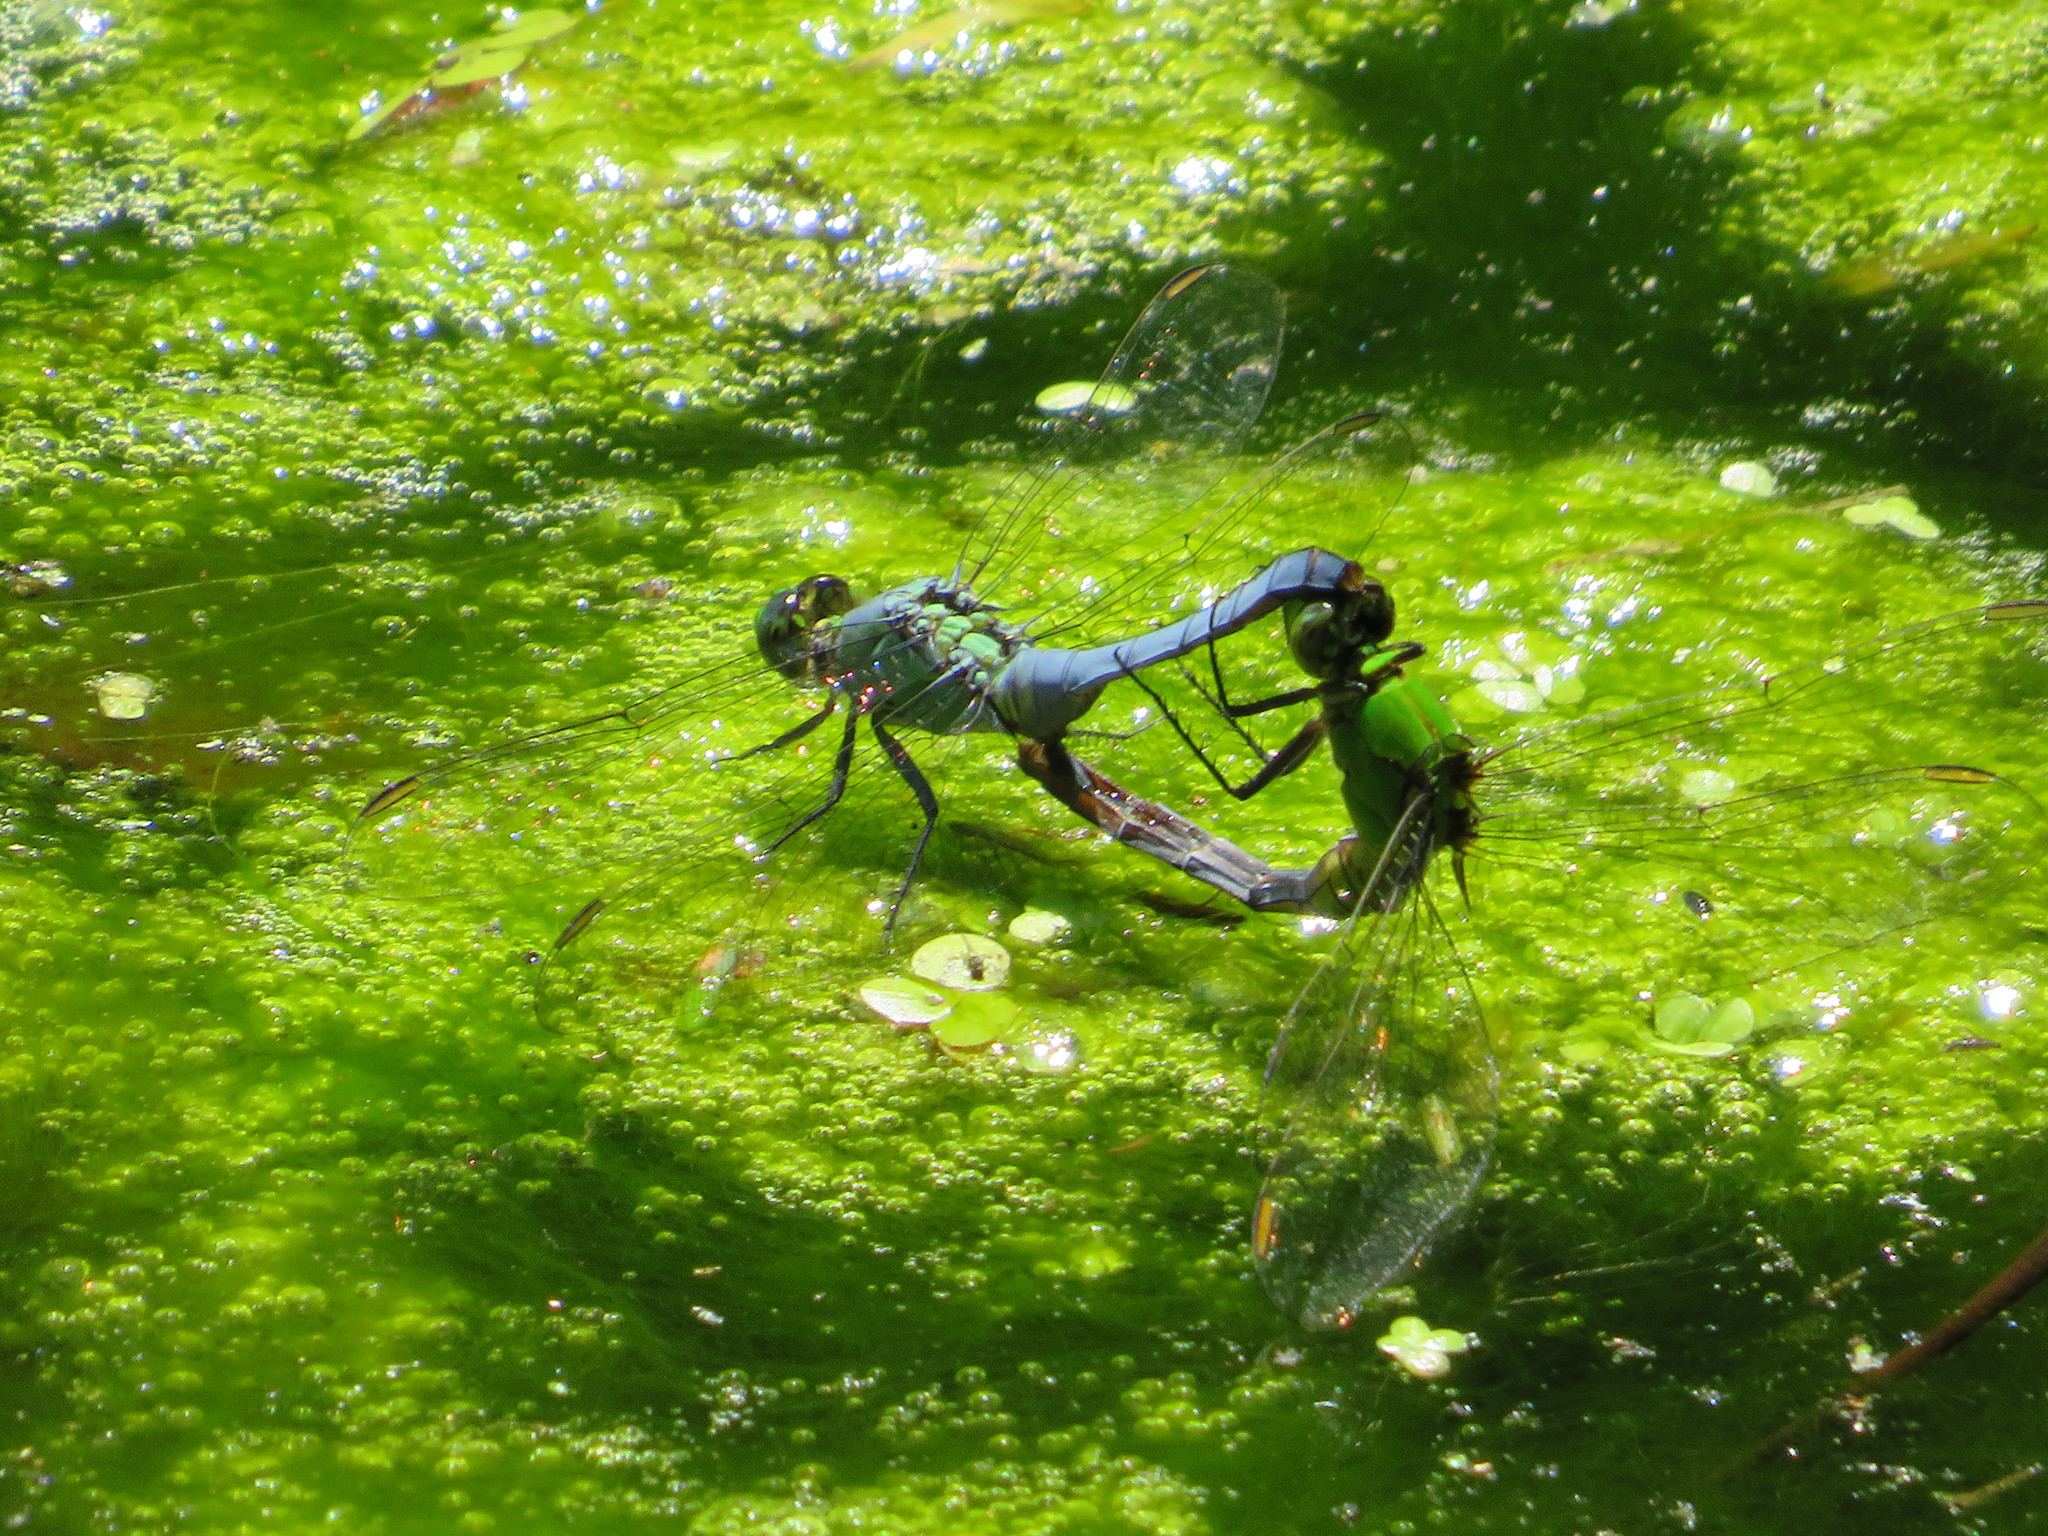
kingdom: Animalia
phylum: Arthropoda
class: Insecta
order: Odonata
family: Libellulidae
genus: Erythemis
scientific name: Erythemis simplicicollis
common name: Eastern pondhawk
